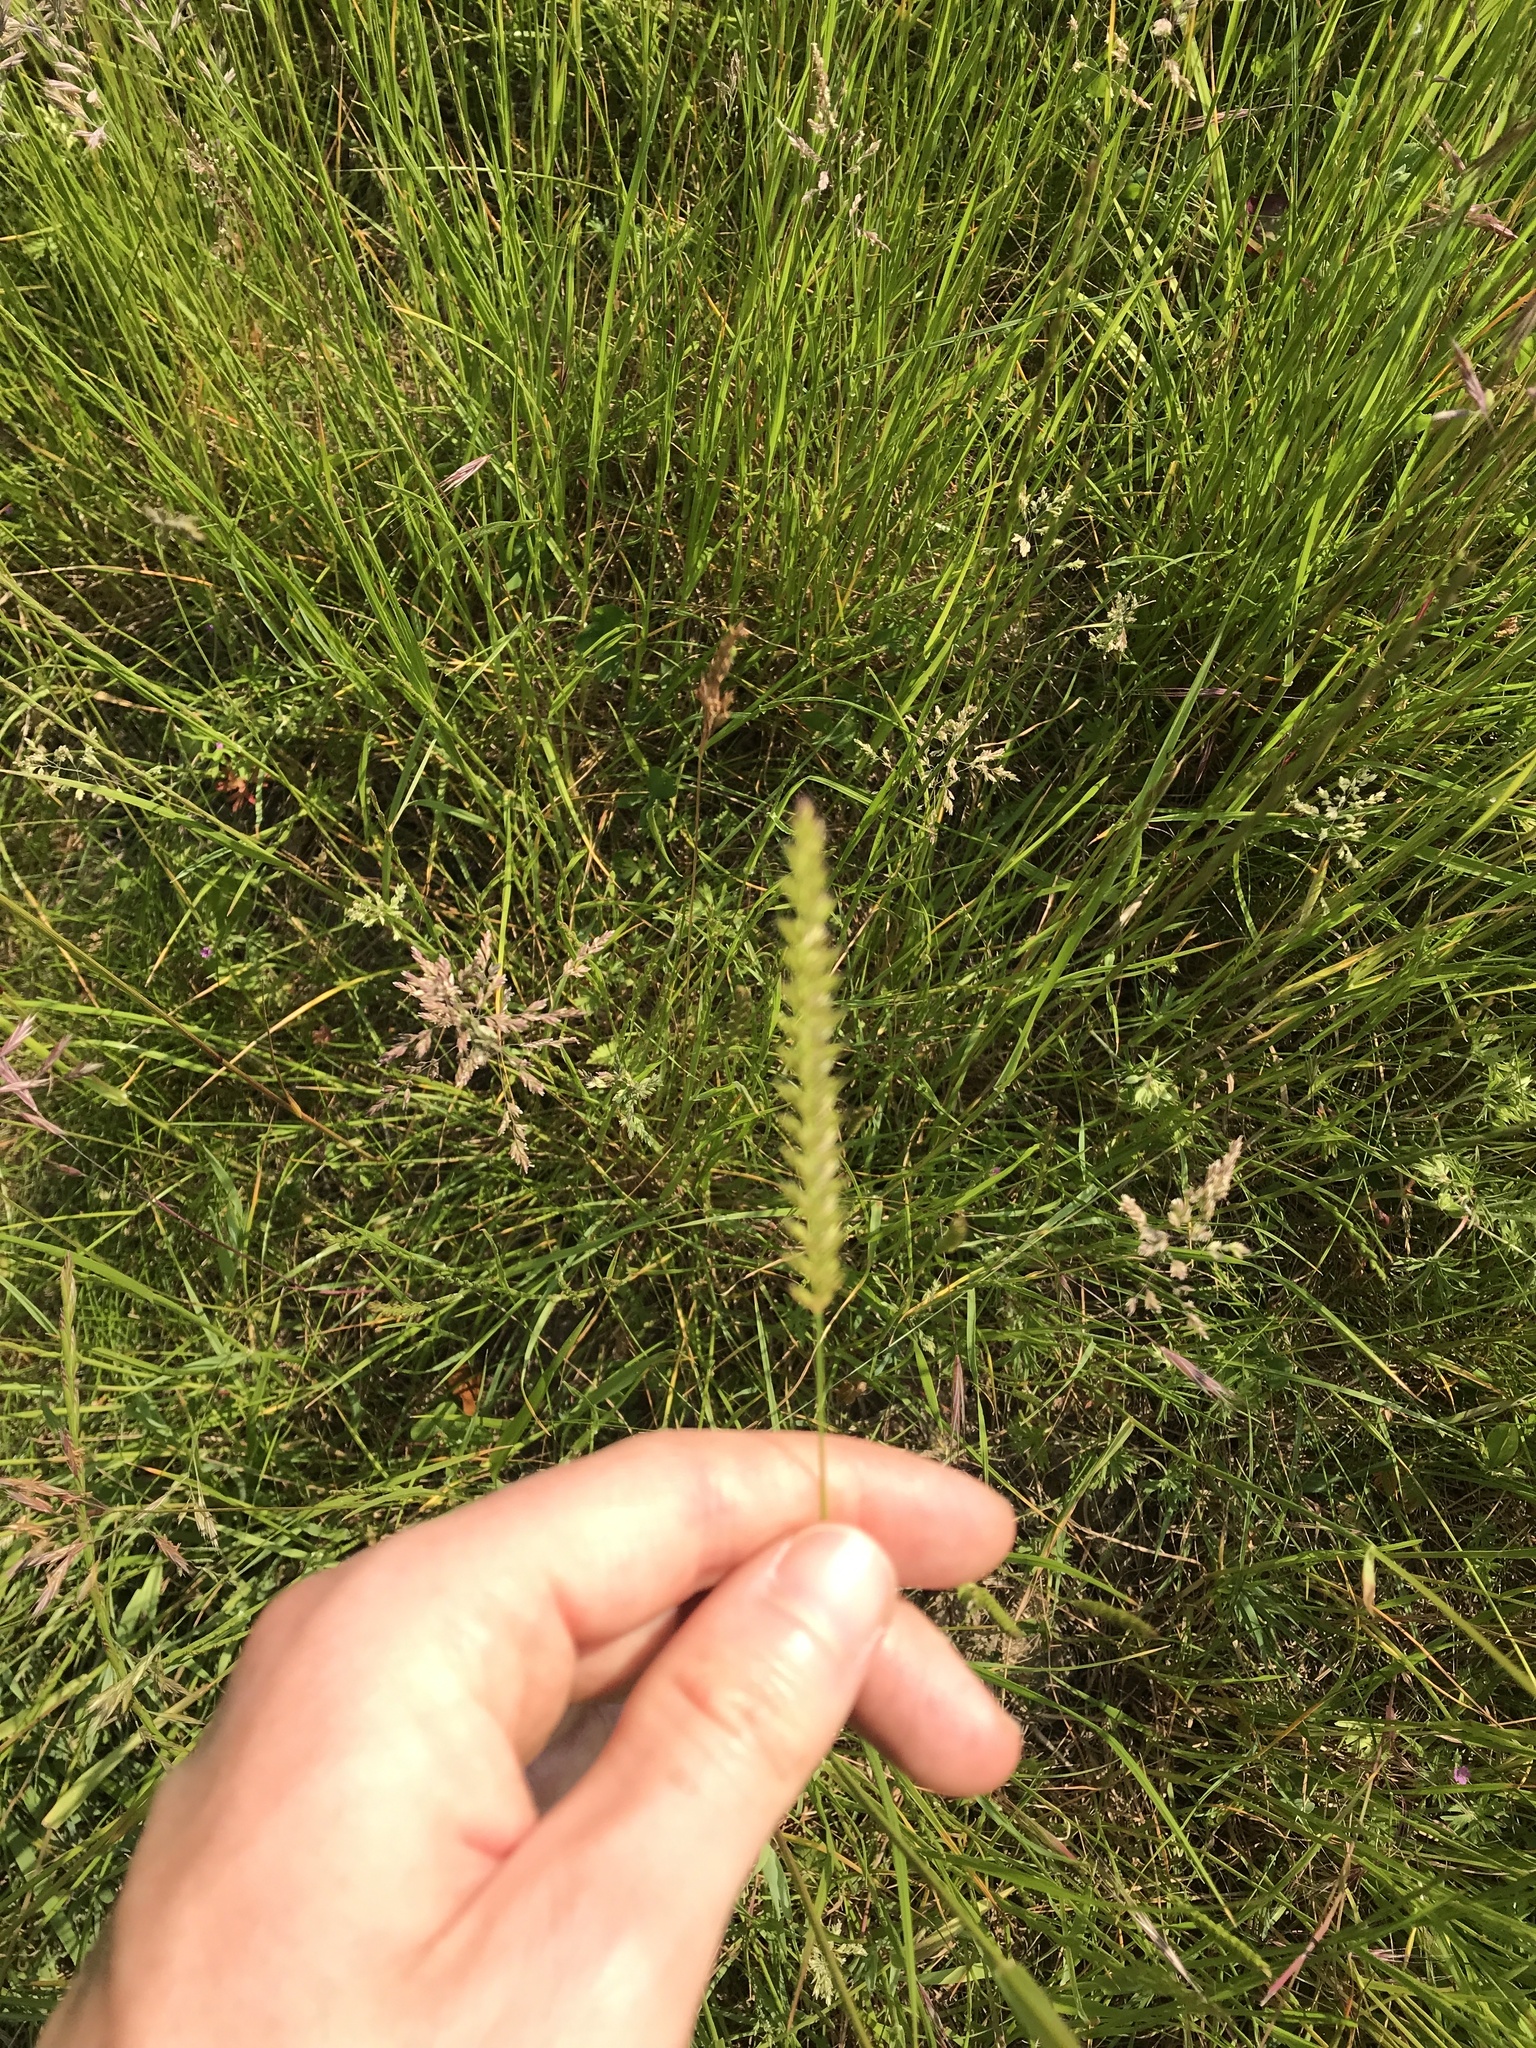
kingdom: Plantae
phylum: Tracheophyta
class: Liliopsida
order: Poales
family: Poaceae
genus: Cynosurus
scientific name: Cynosurus cristatus
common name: Crested dog's-tail
